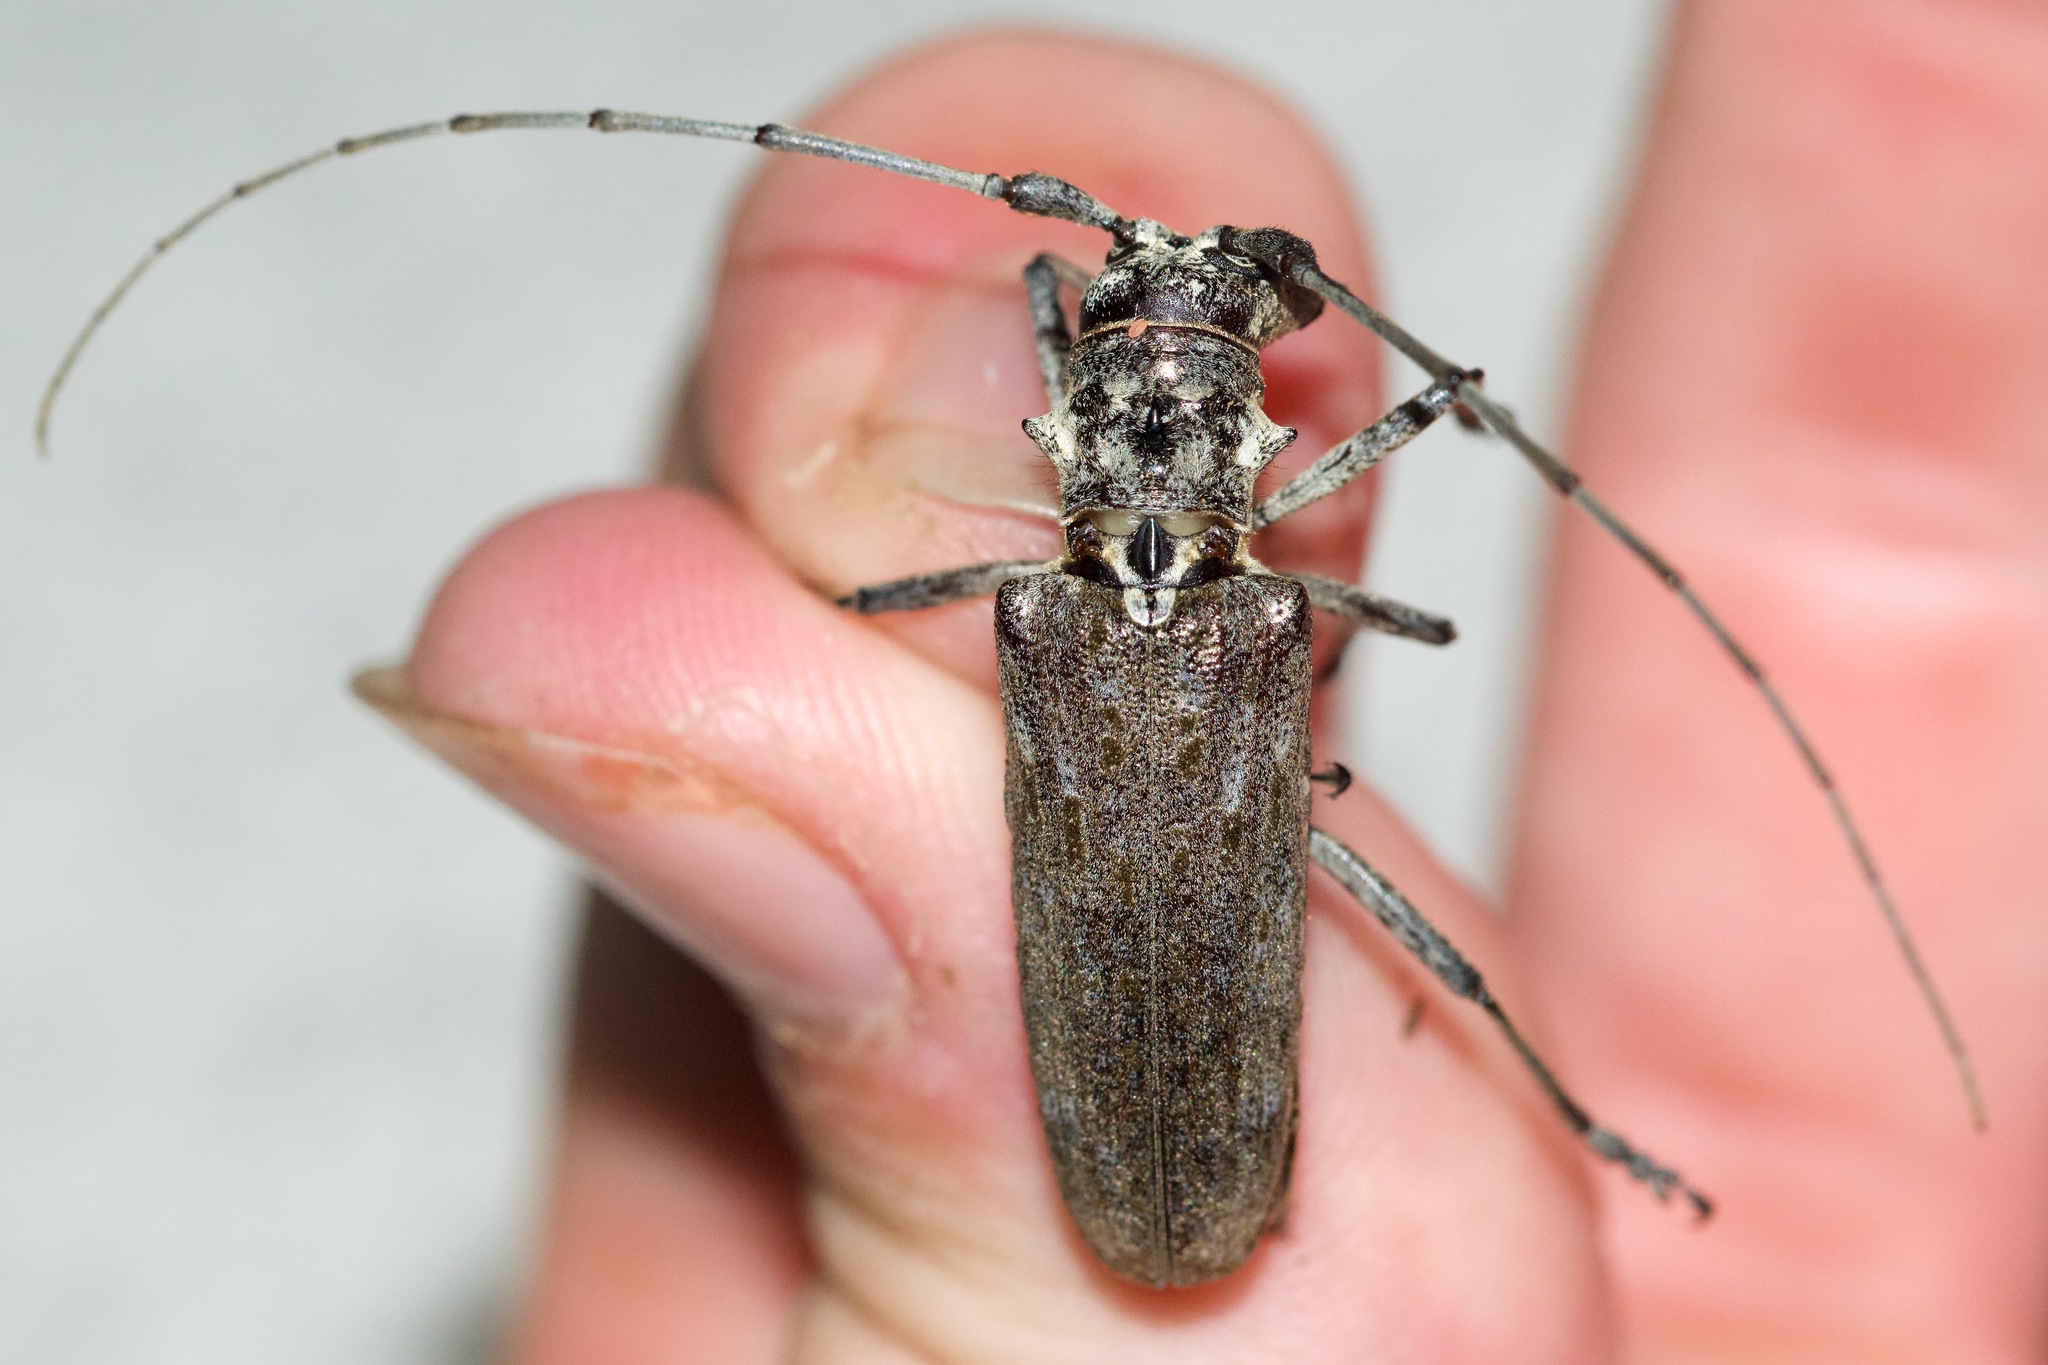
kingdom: Animalia
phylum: Arthropoda
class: Insecta
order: Coleoptera
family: Cerambycidae
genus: Monochamus
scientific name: Monochamus notatus
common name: Northeastern pine sawyer beetle
